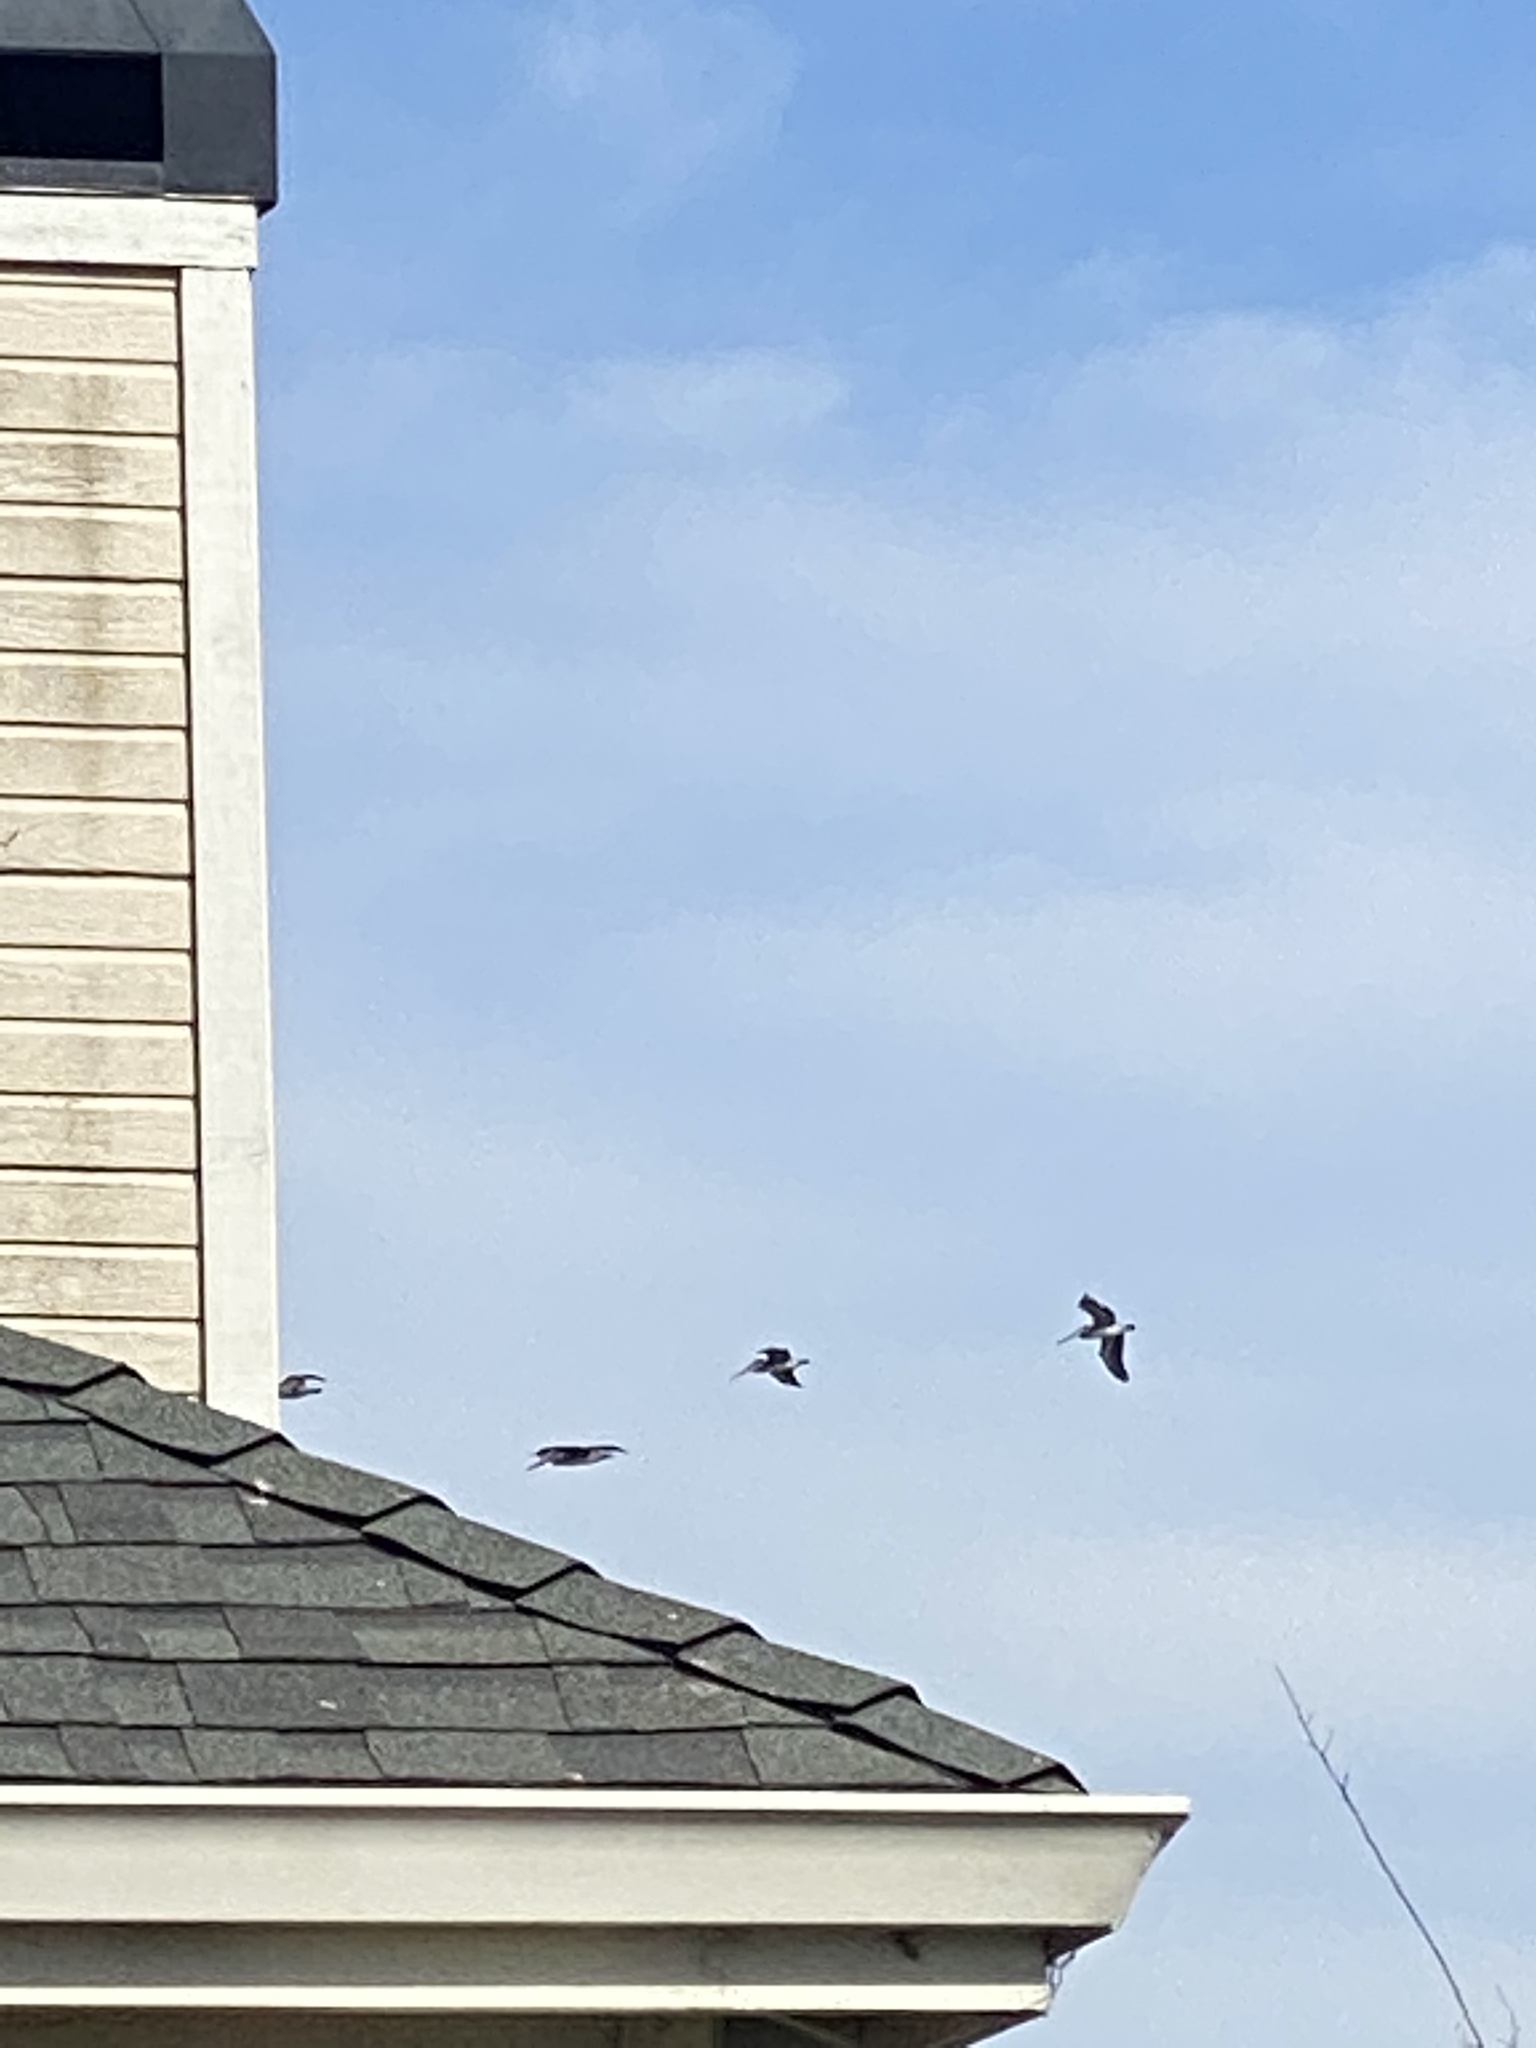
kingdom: Animalia
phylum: Chordata
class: Aves
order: Pelecaniformes
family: Pelecanidae
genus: Pelecanus
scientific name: Pelecanus occidentalis
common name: Brown pelican
